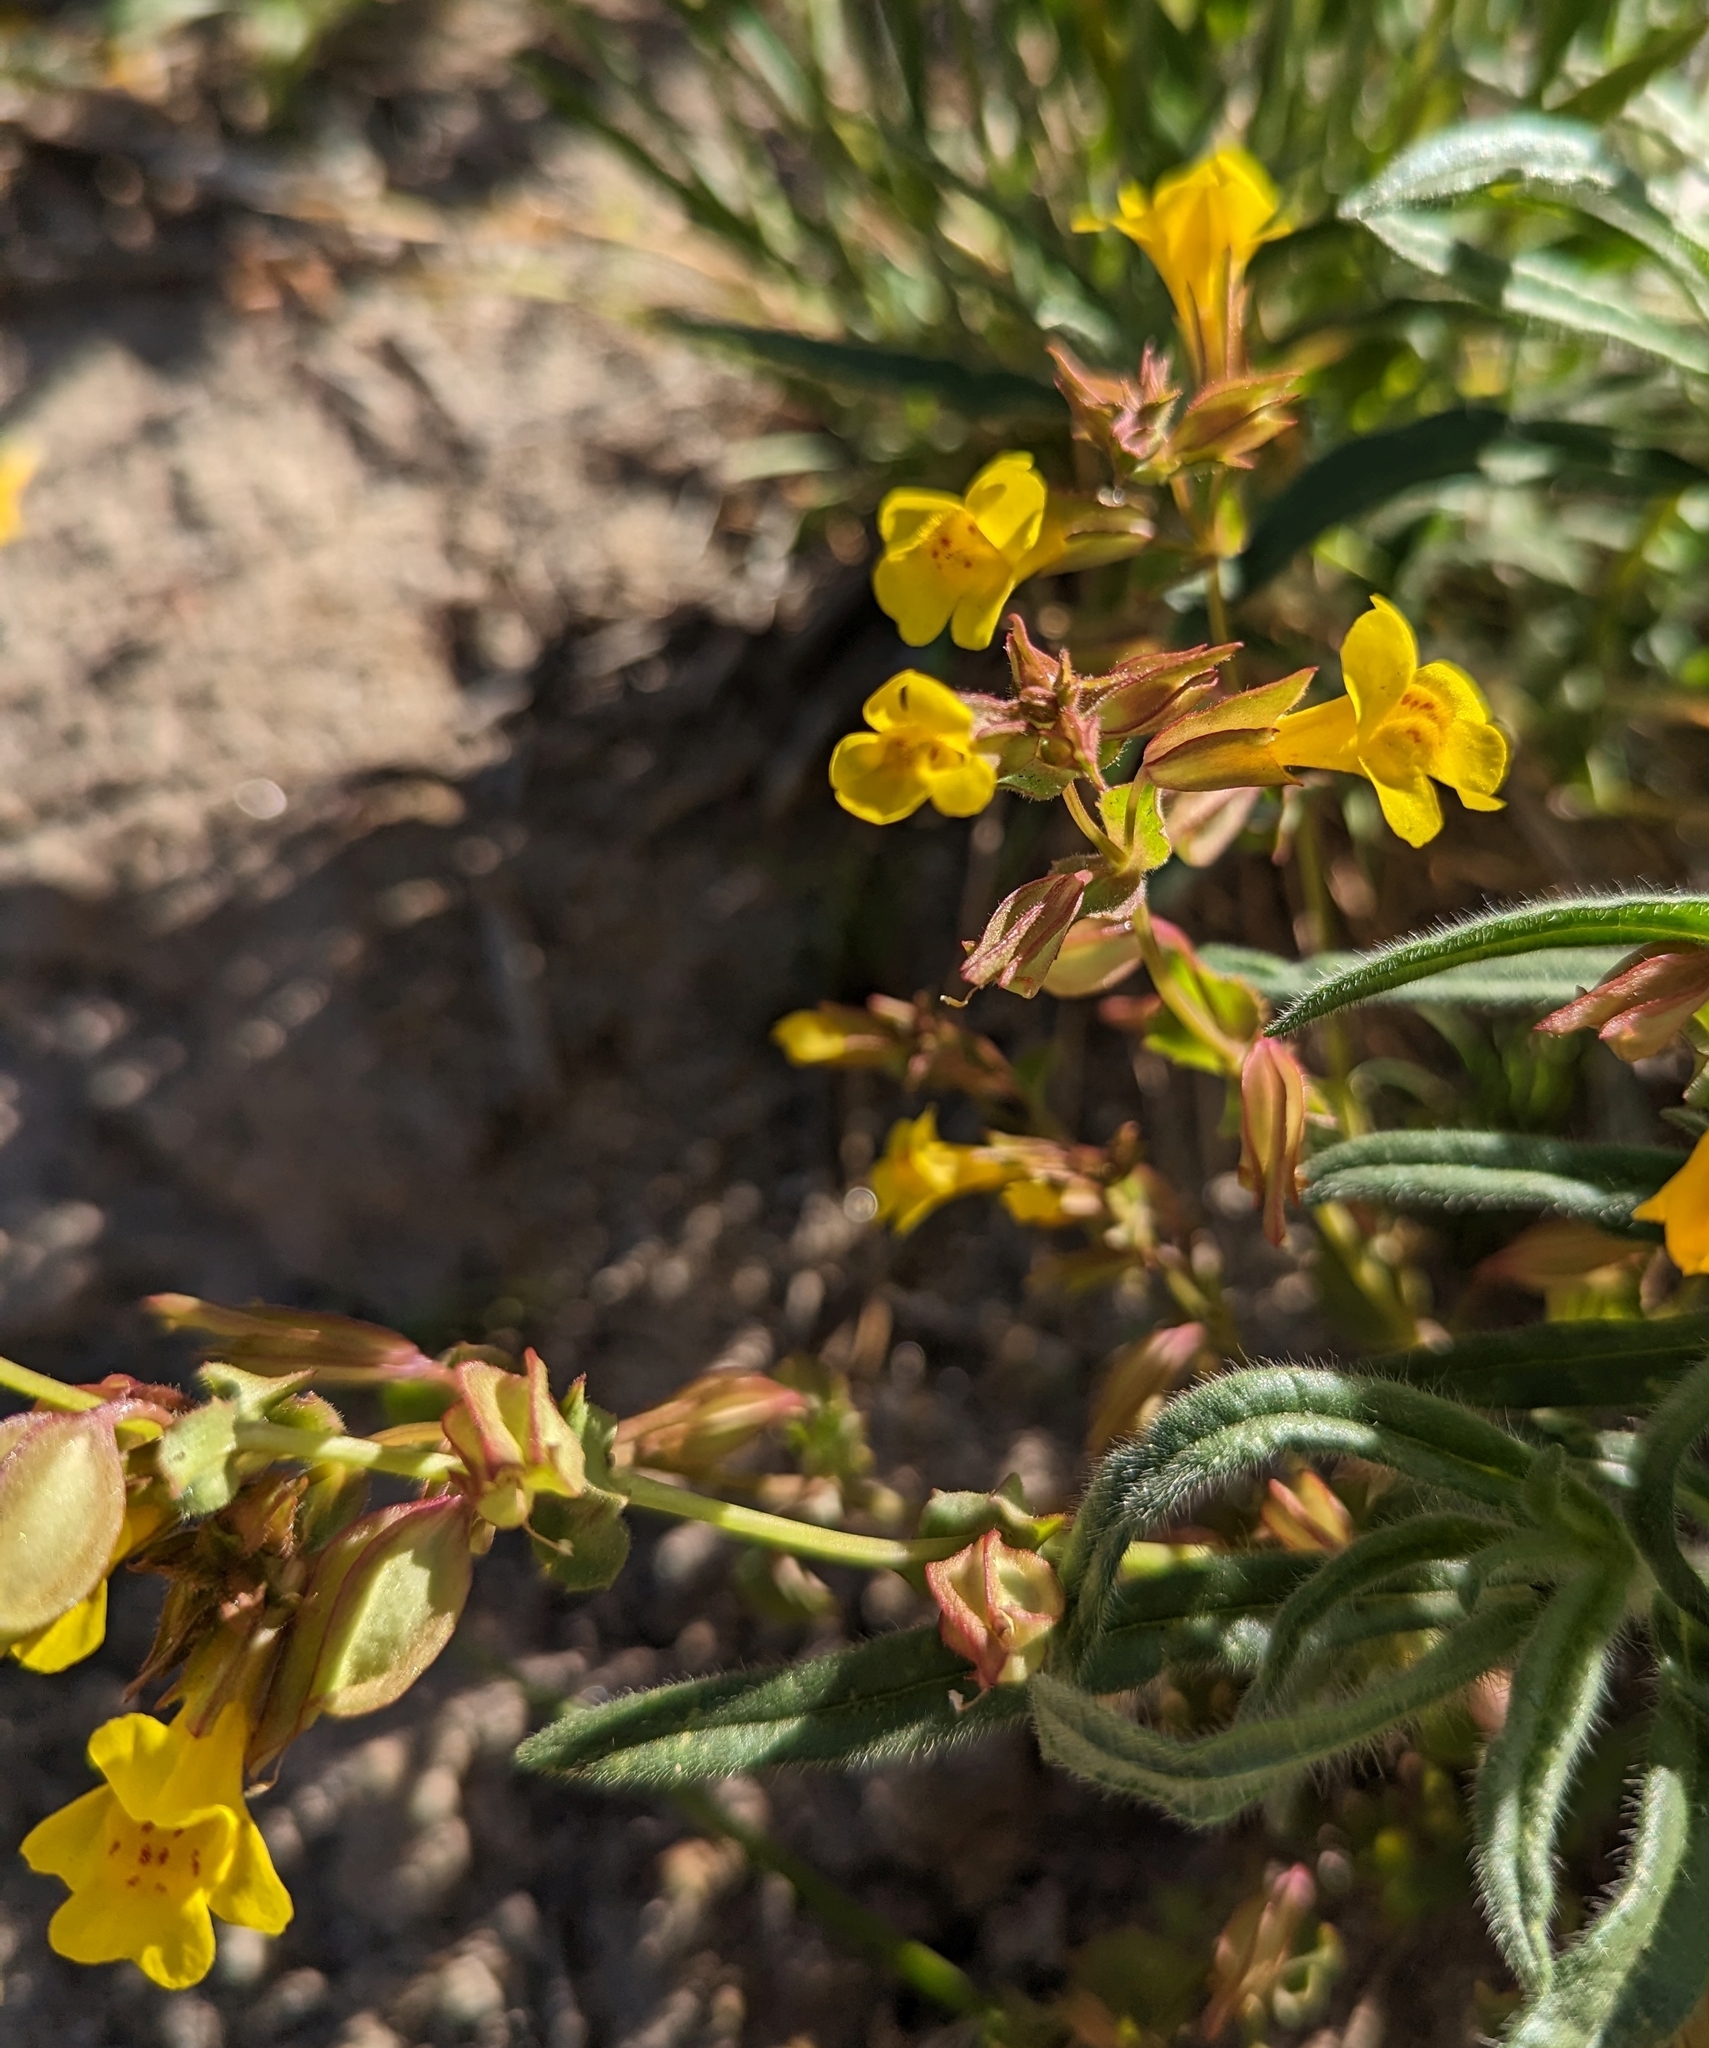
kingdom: Plantae
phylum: Tracheophyta
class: Magnoliopsida
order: Lamiales
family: Phrymaceae
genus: Erythranthe
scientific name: Erythranthe guttata
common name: Monkeyflower
